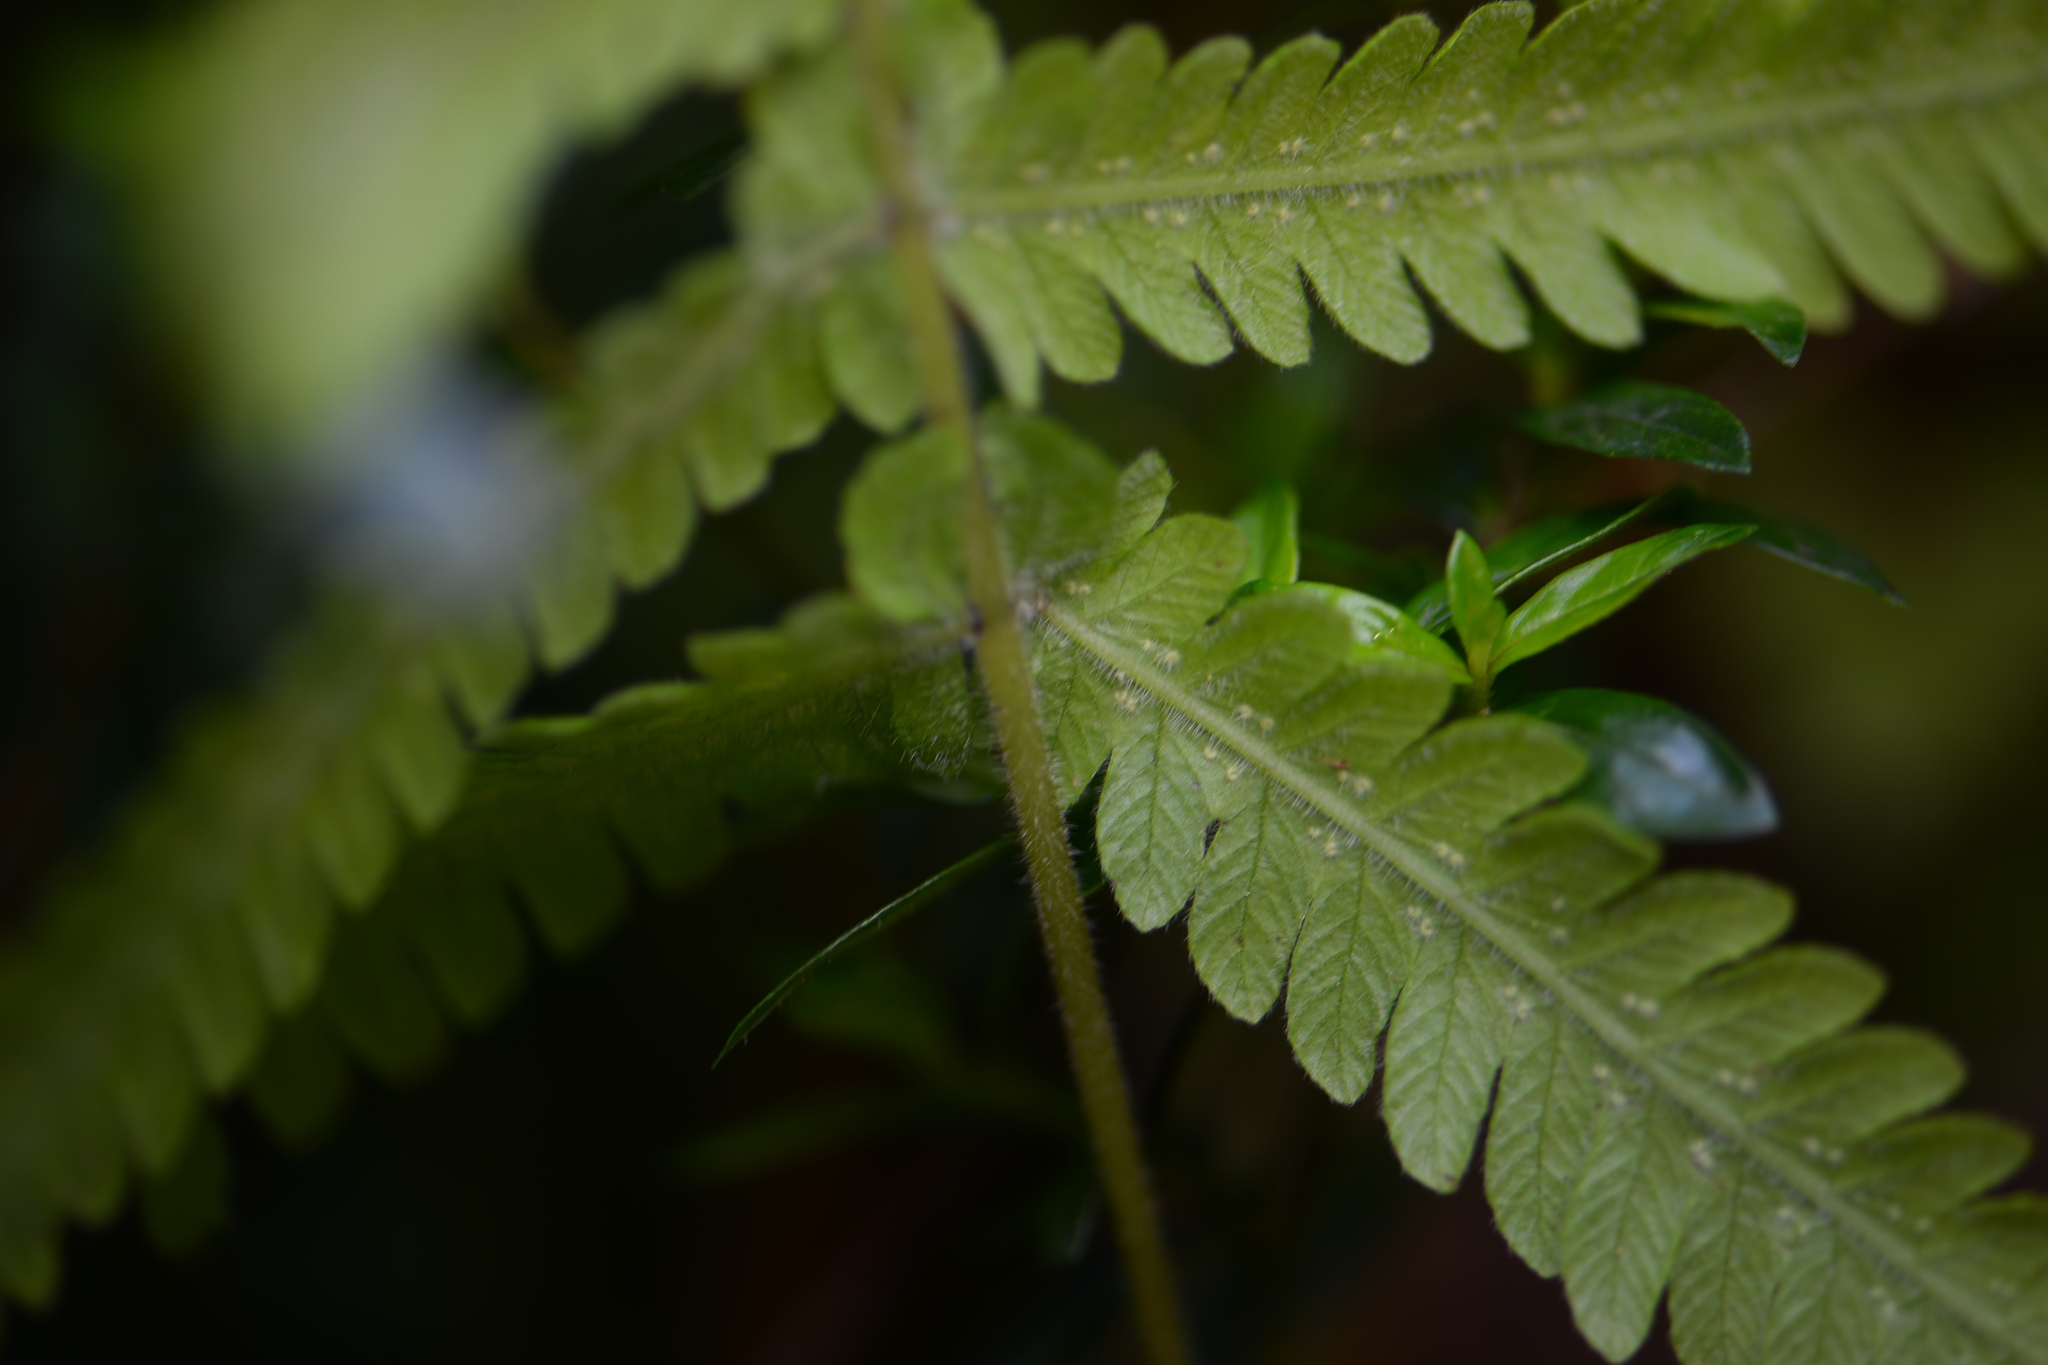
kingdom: Plantae
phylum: Tracheophyta
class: Polypodiopsida
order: Polypodiales
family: Thelypteridaceae
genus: Christella
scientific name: Christella parasitica
